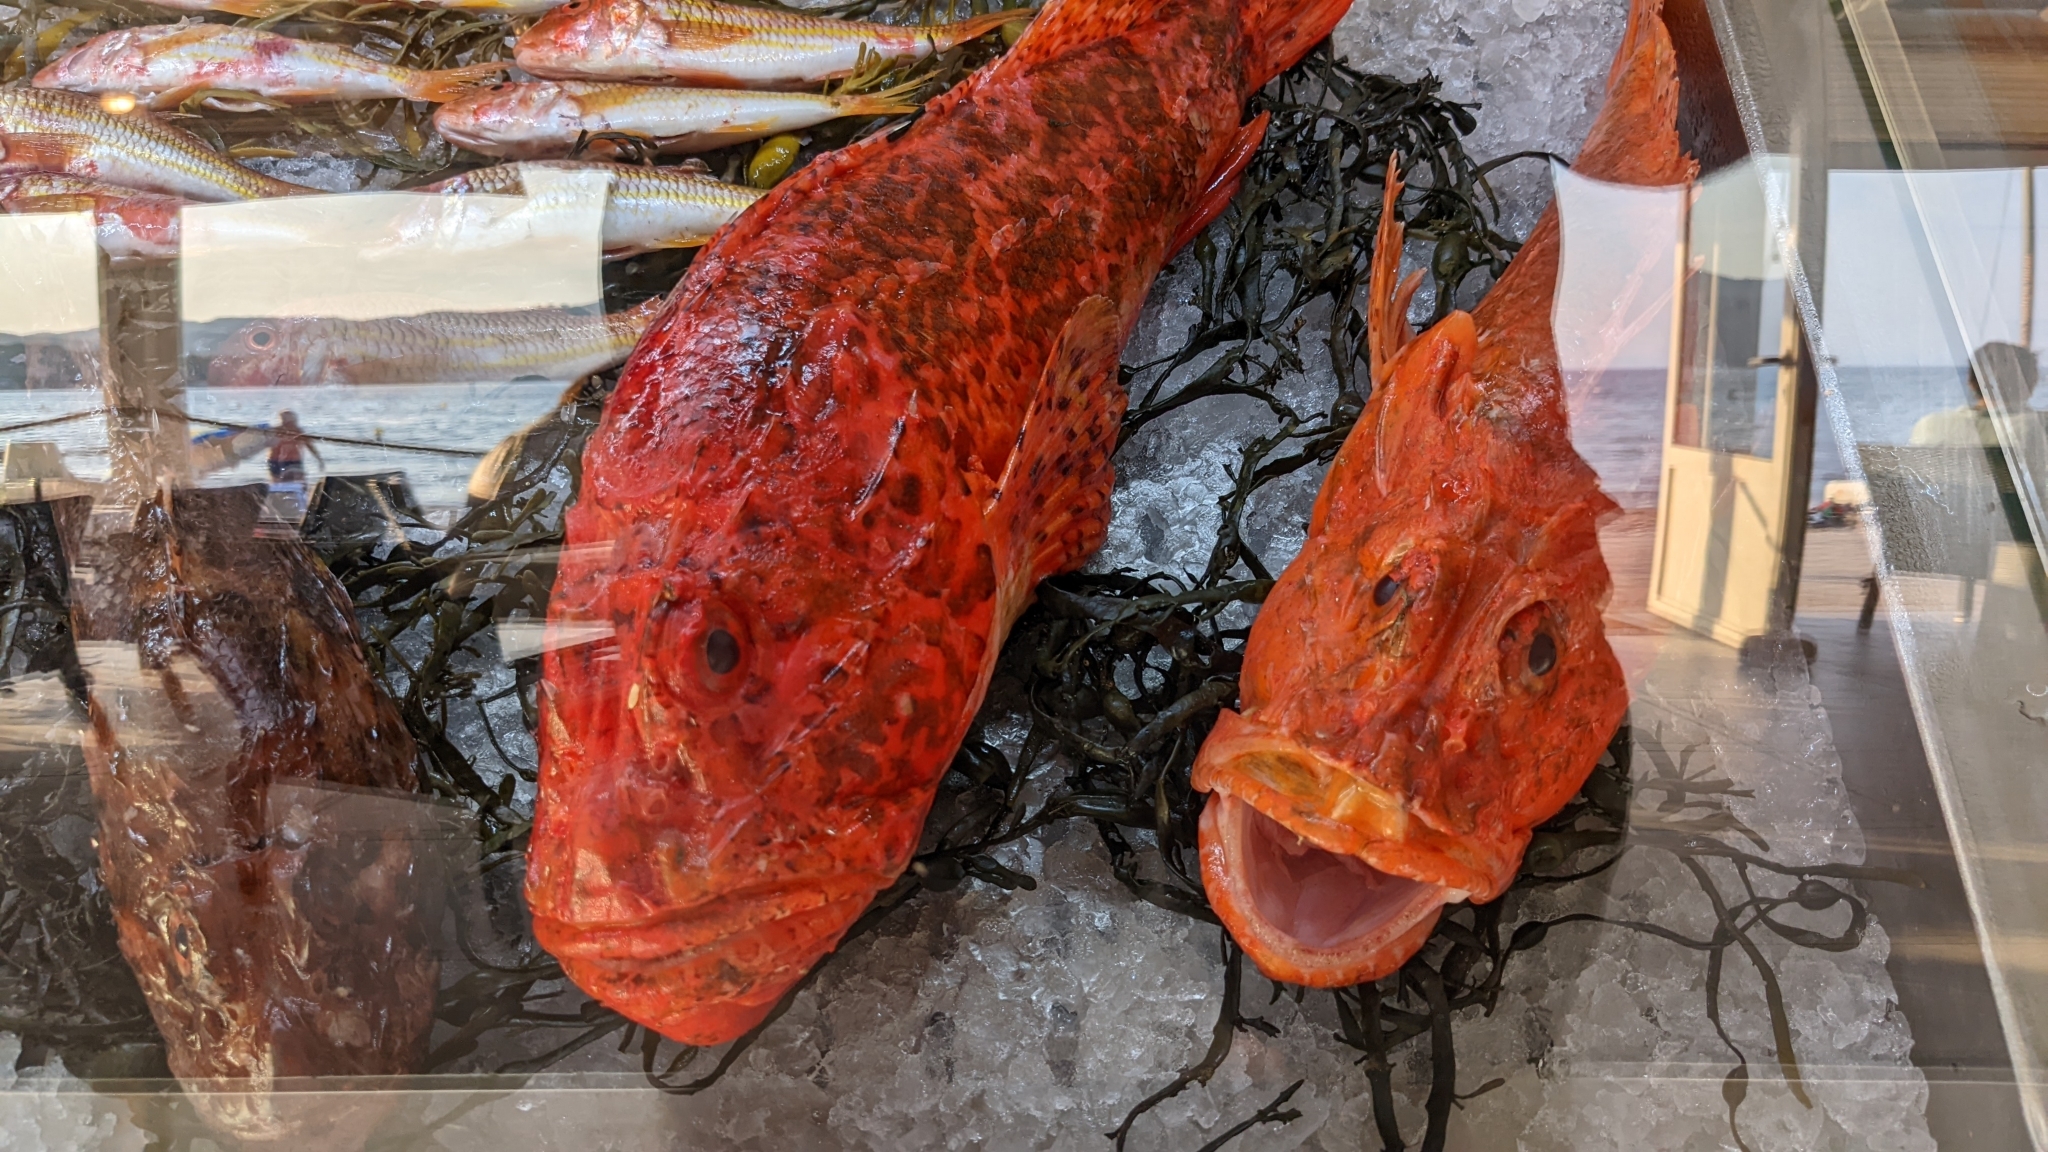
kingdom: Animalia
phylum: Chordata
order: Scorpaeniformes
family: Scorpaenidae
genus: Scorpaena
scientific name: Scorpaena scrofa
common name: Red scorpionfish
